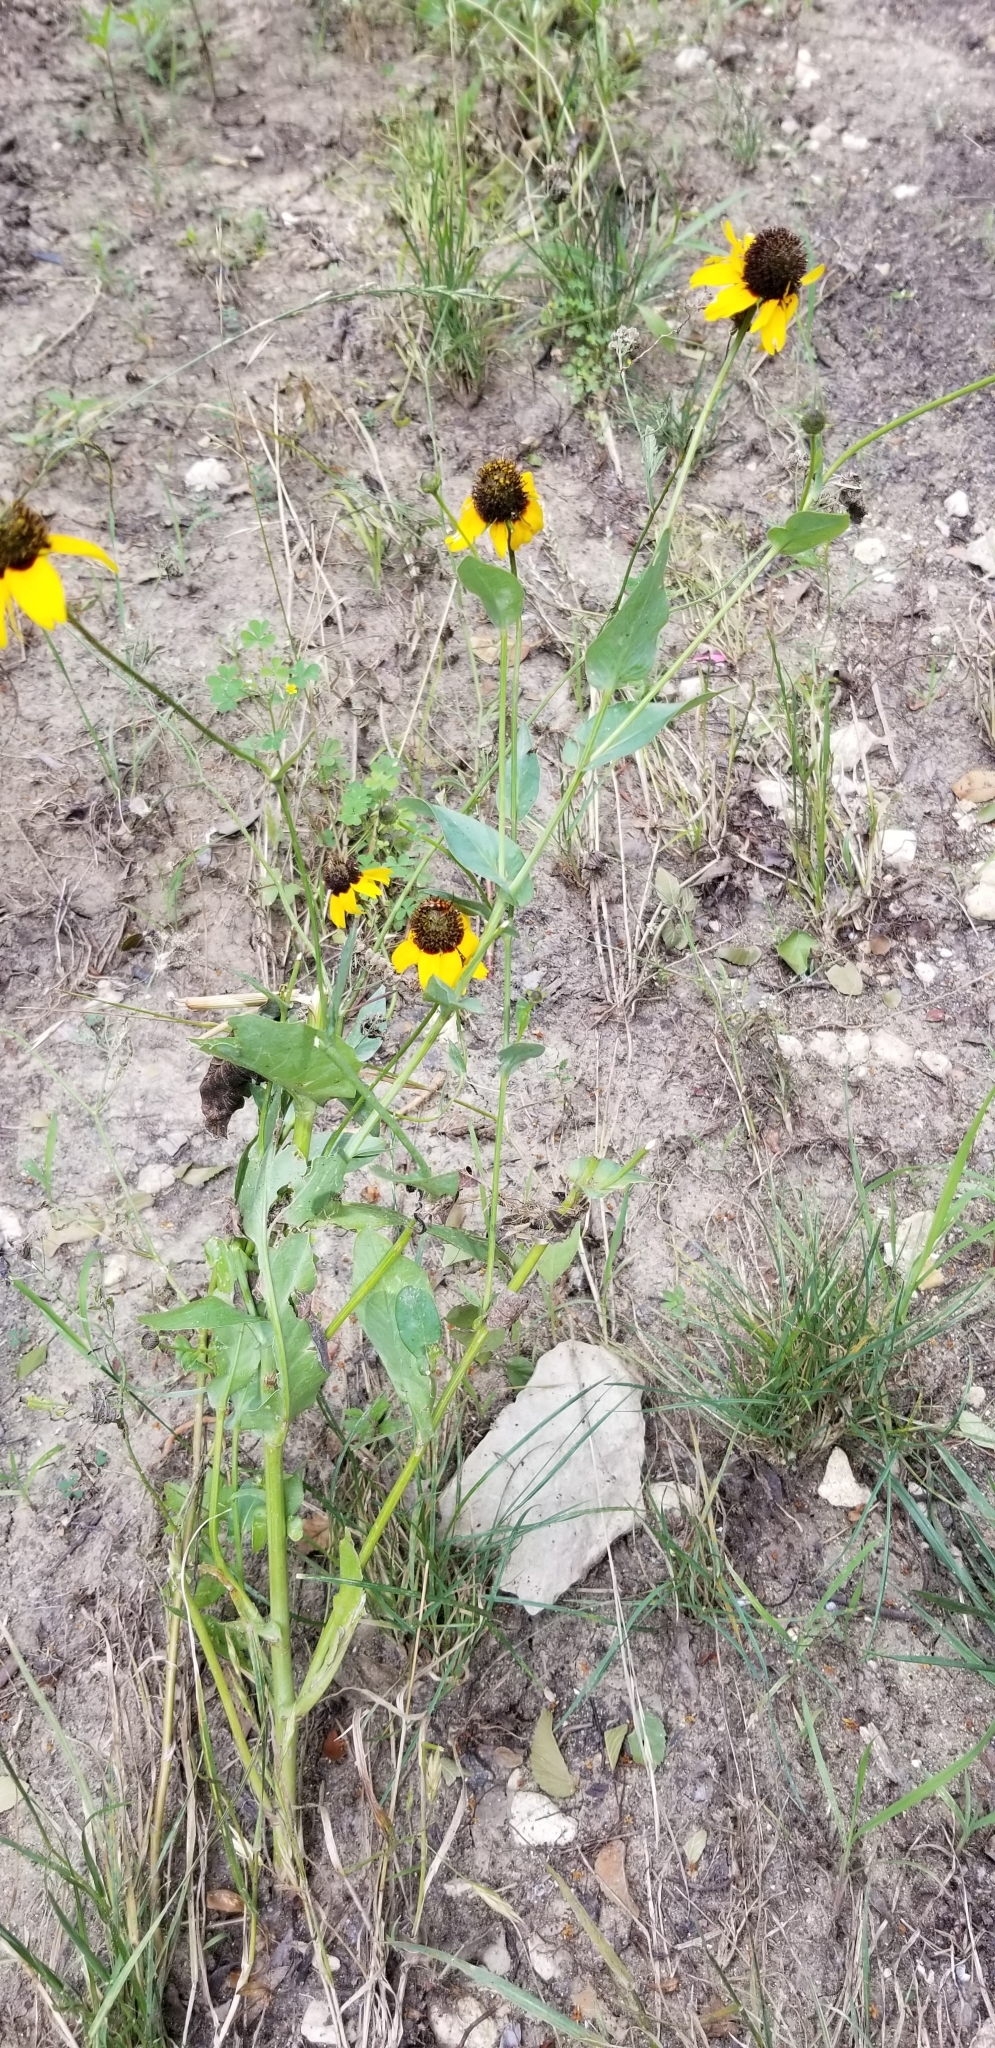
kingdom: Plantae
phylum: Tracheophyta
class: Magnoliopsida
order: Asterales
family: Asteraceae
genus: Rudbeckia
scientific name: Rudbeckia amplexicaulis
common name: Clasping-leaf coneflower
